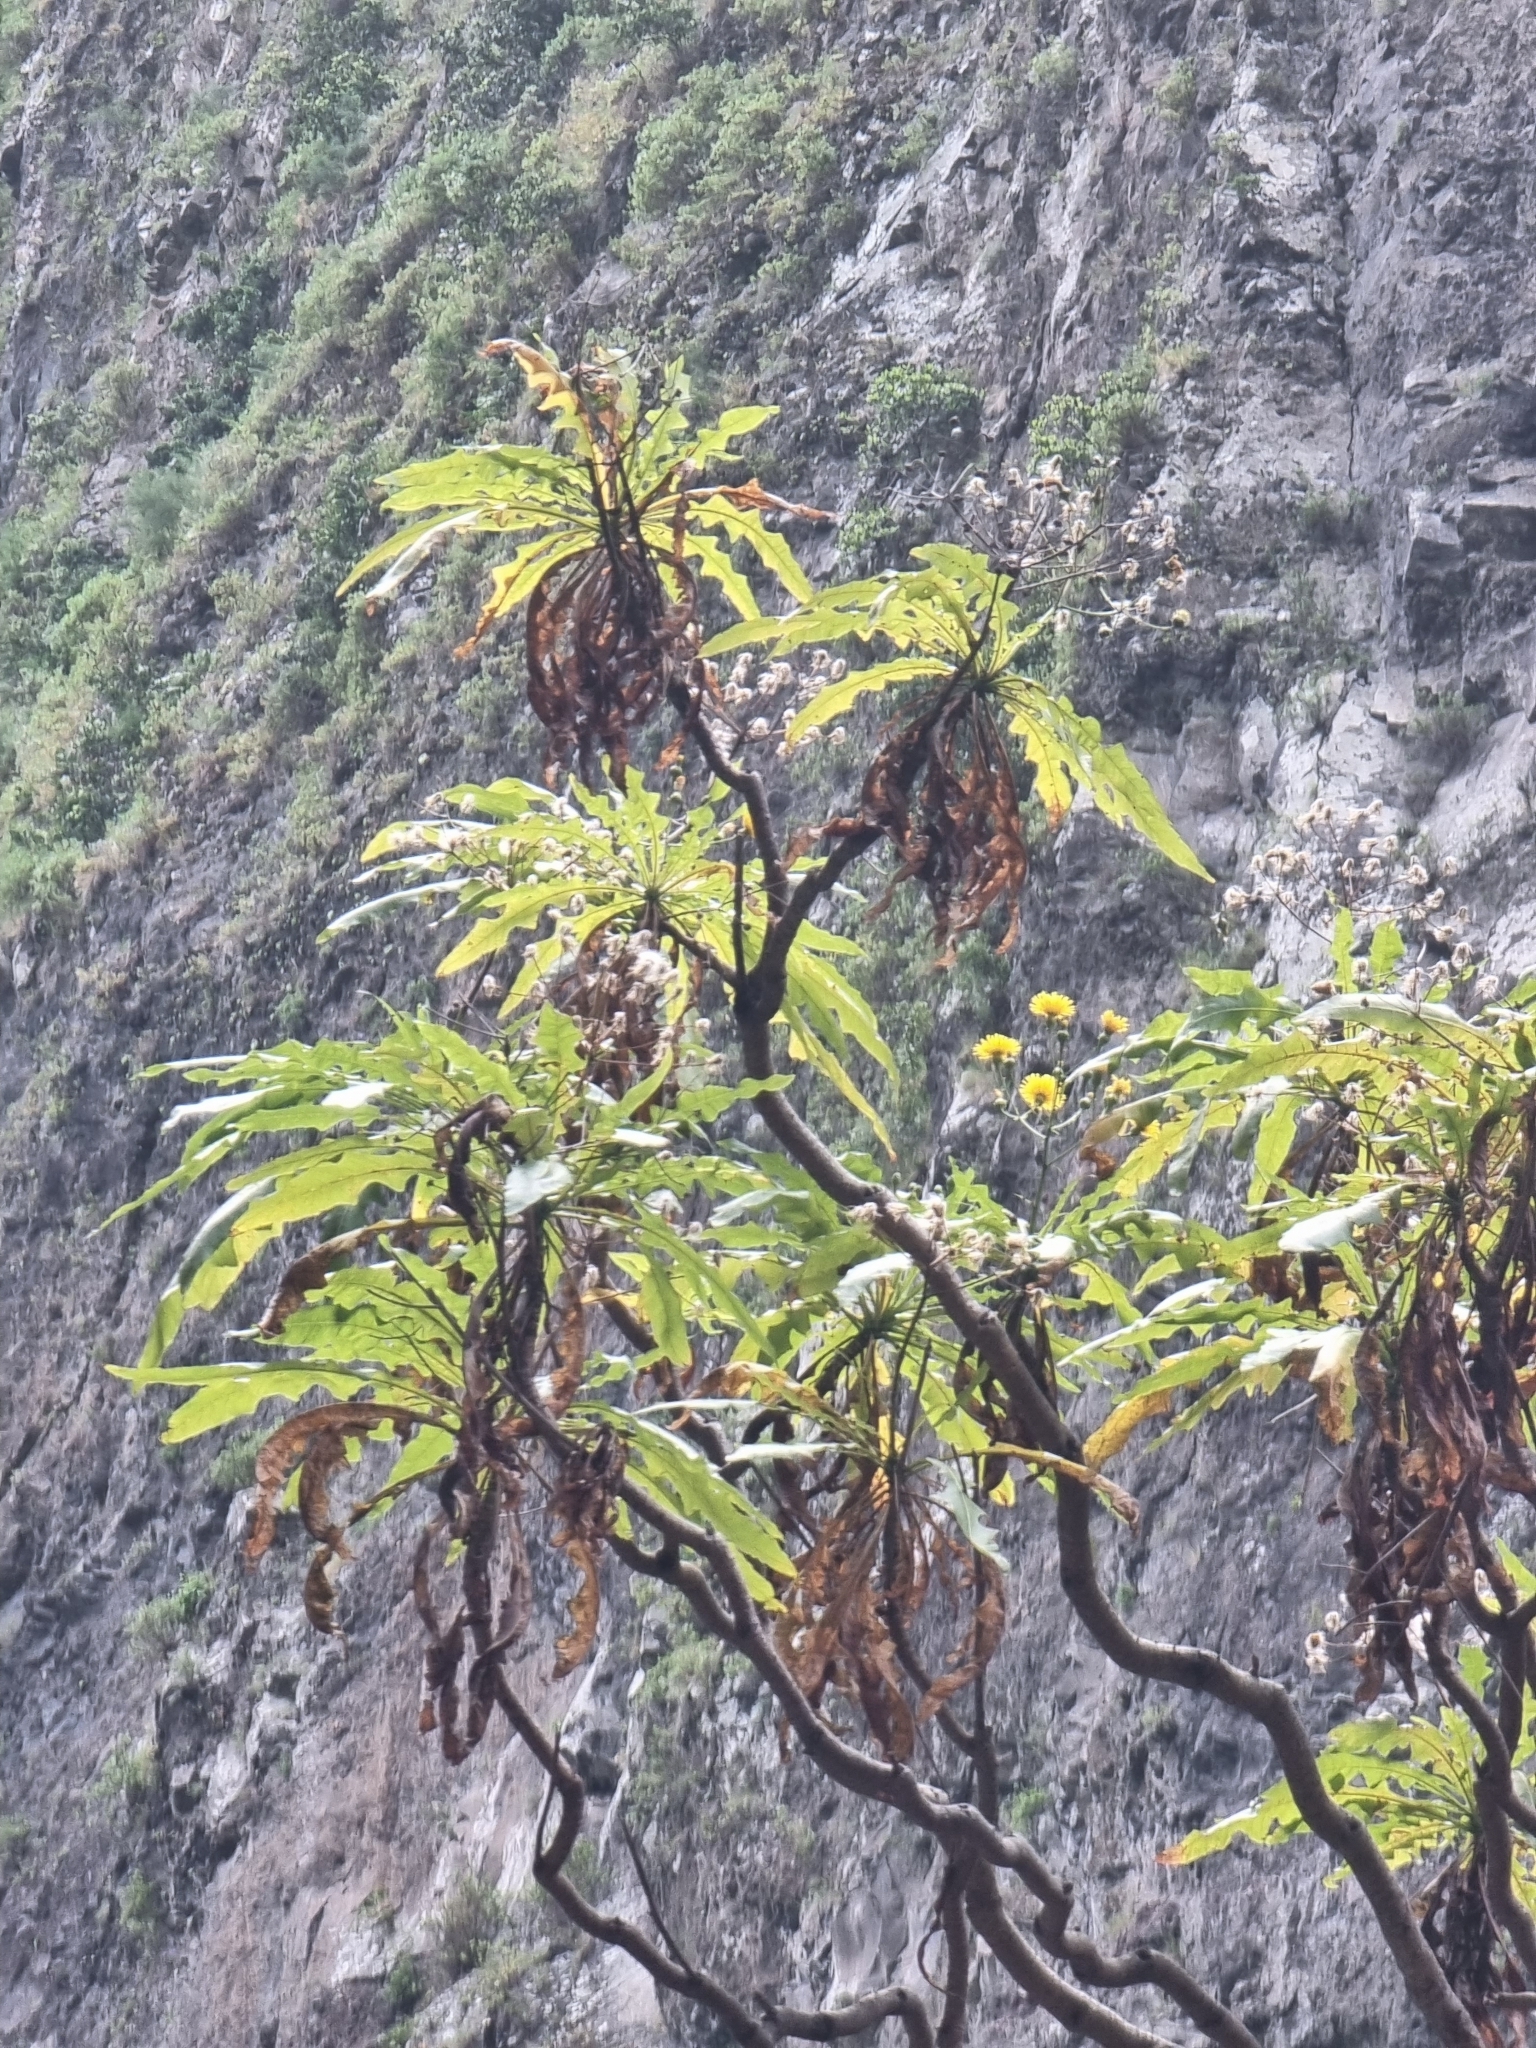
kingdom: Plantae
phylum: Tracheophyta
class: Magnoliopsida
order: Asterales
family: Asteraceae
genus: Sonchus
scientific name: Sonchus fruticosus
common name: Shrubby sow-thistle
